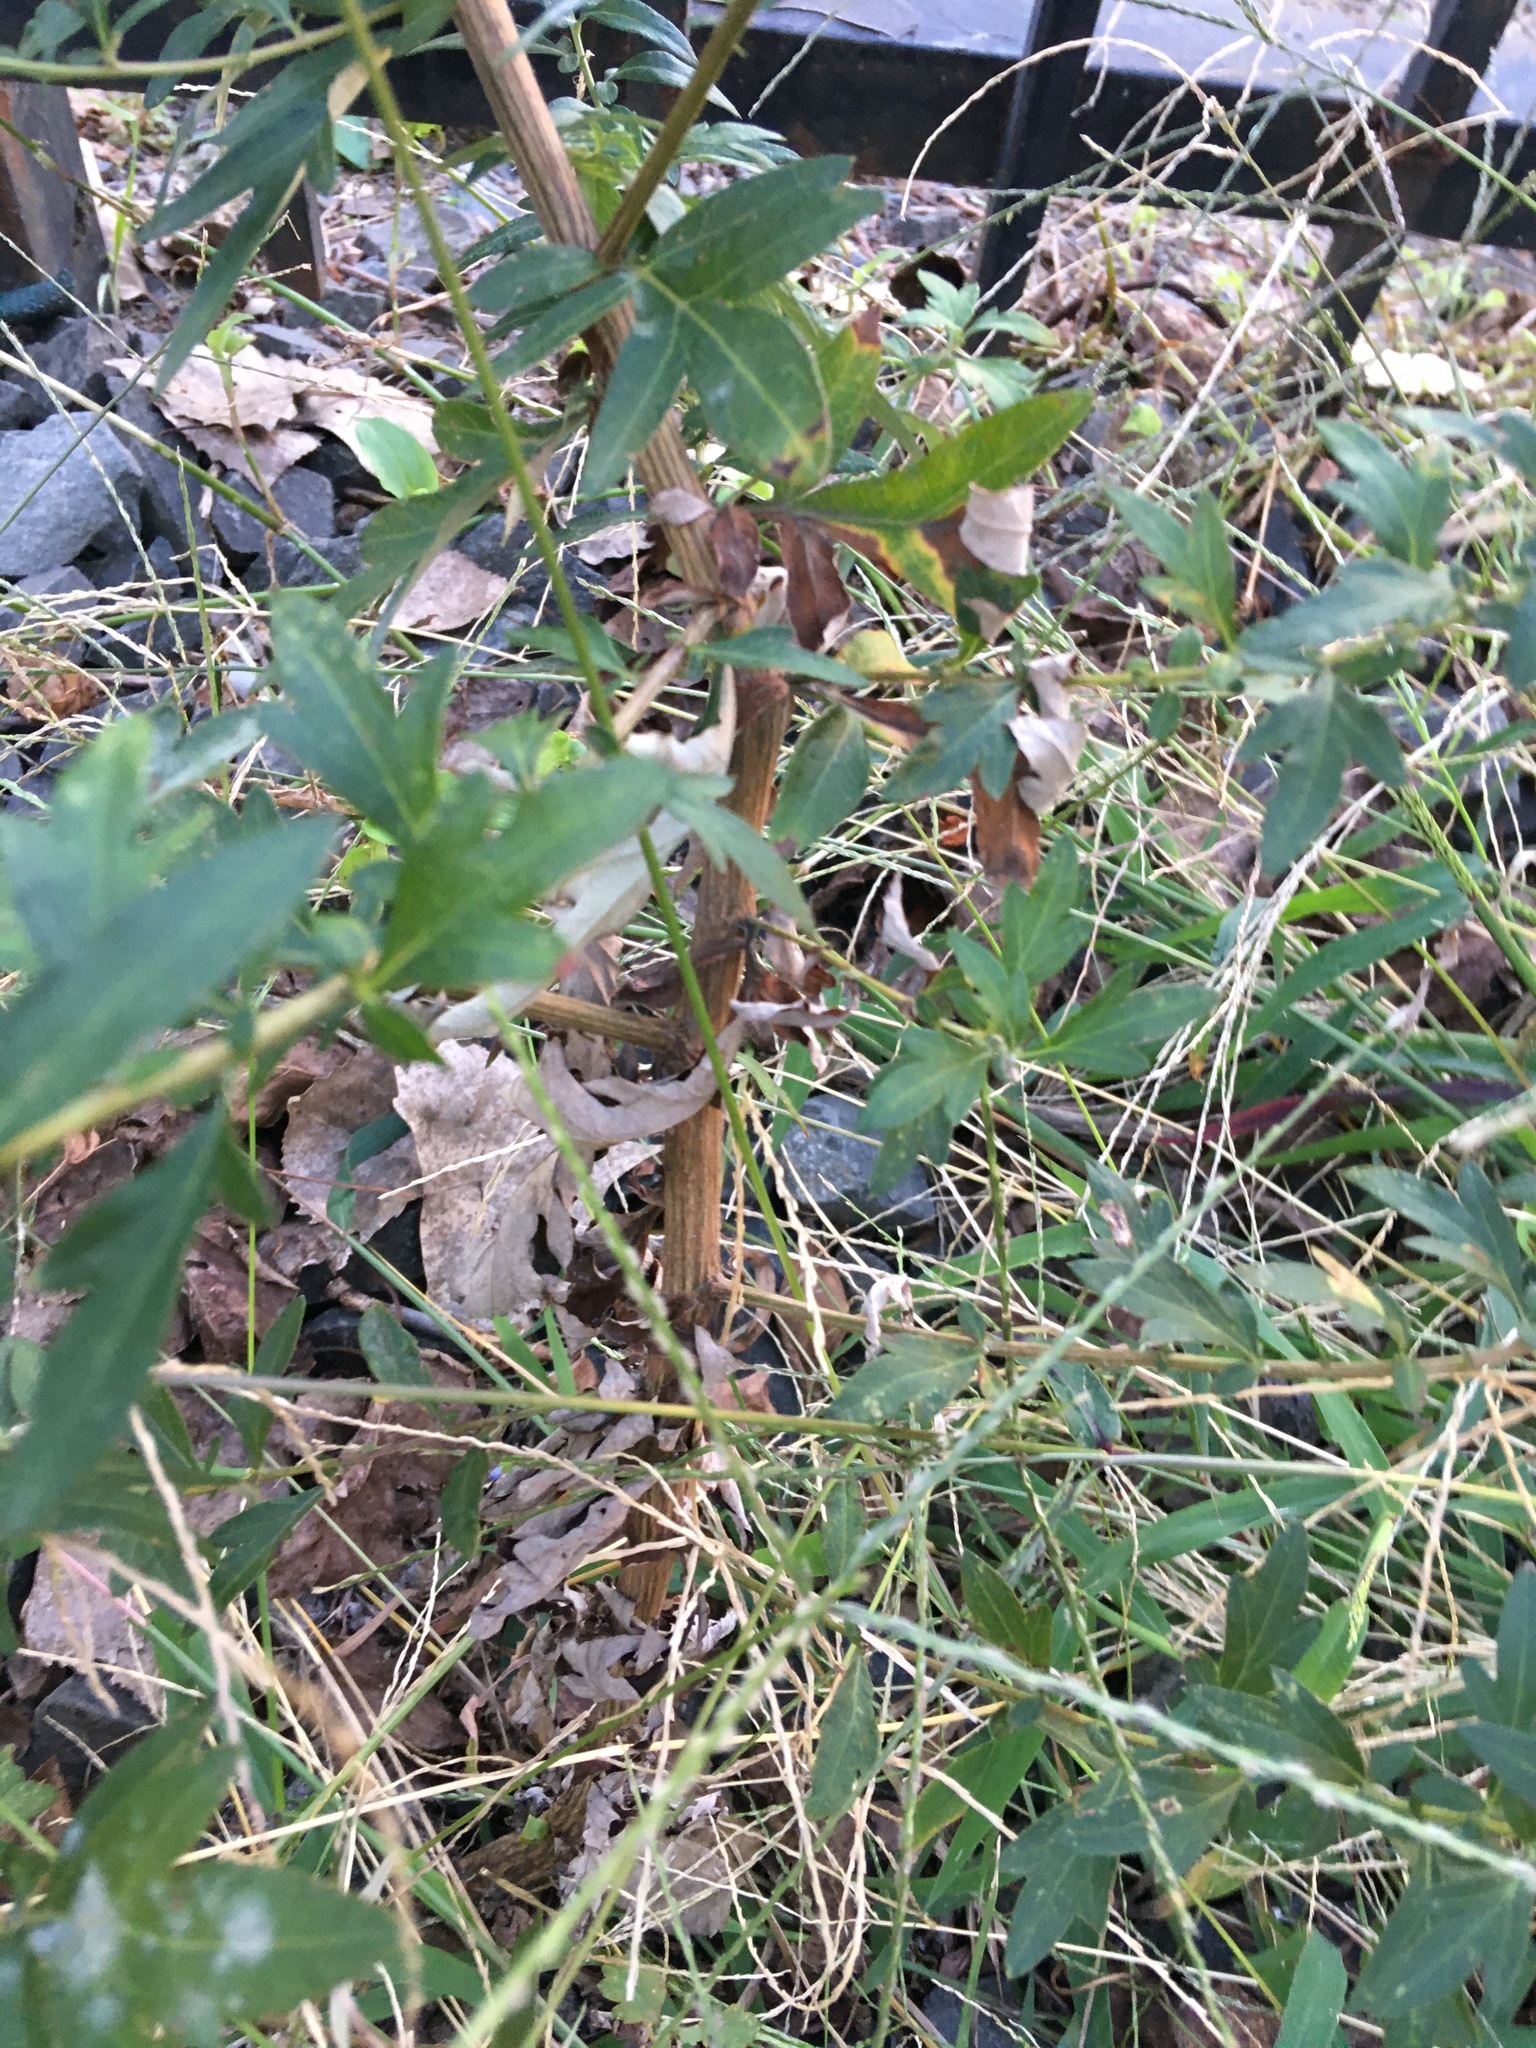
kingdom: Plantae
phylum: Tracheophyta
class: Magnoliopsida
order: Asterales
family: Asteraceae
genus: Artemisia
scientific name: Artemisia vulgaris
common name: Mugwort
